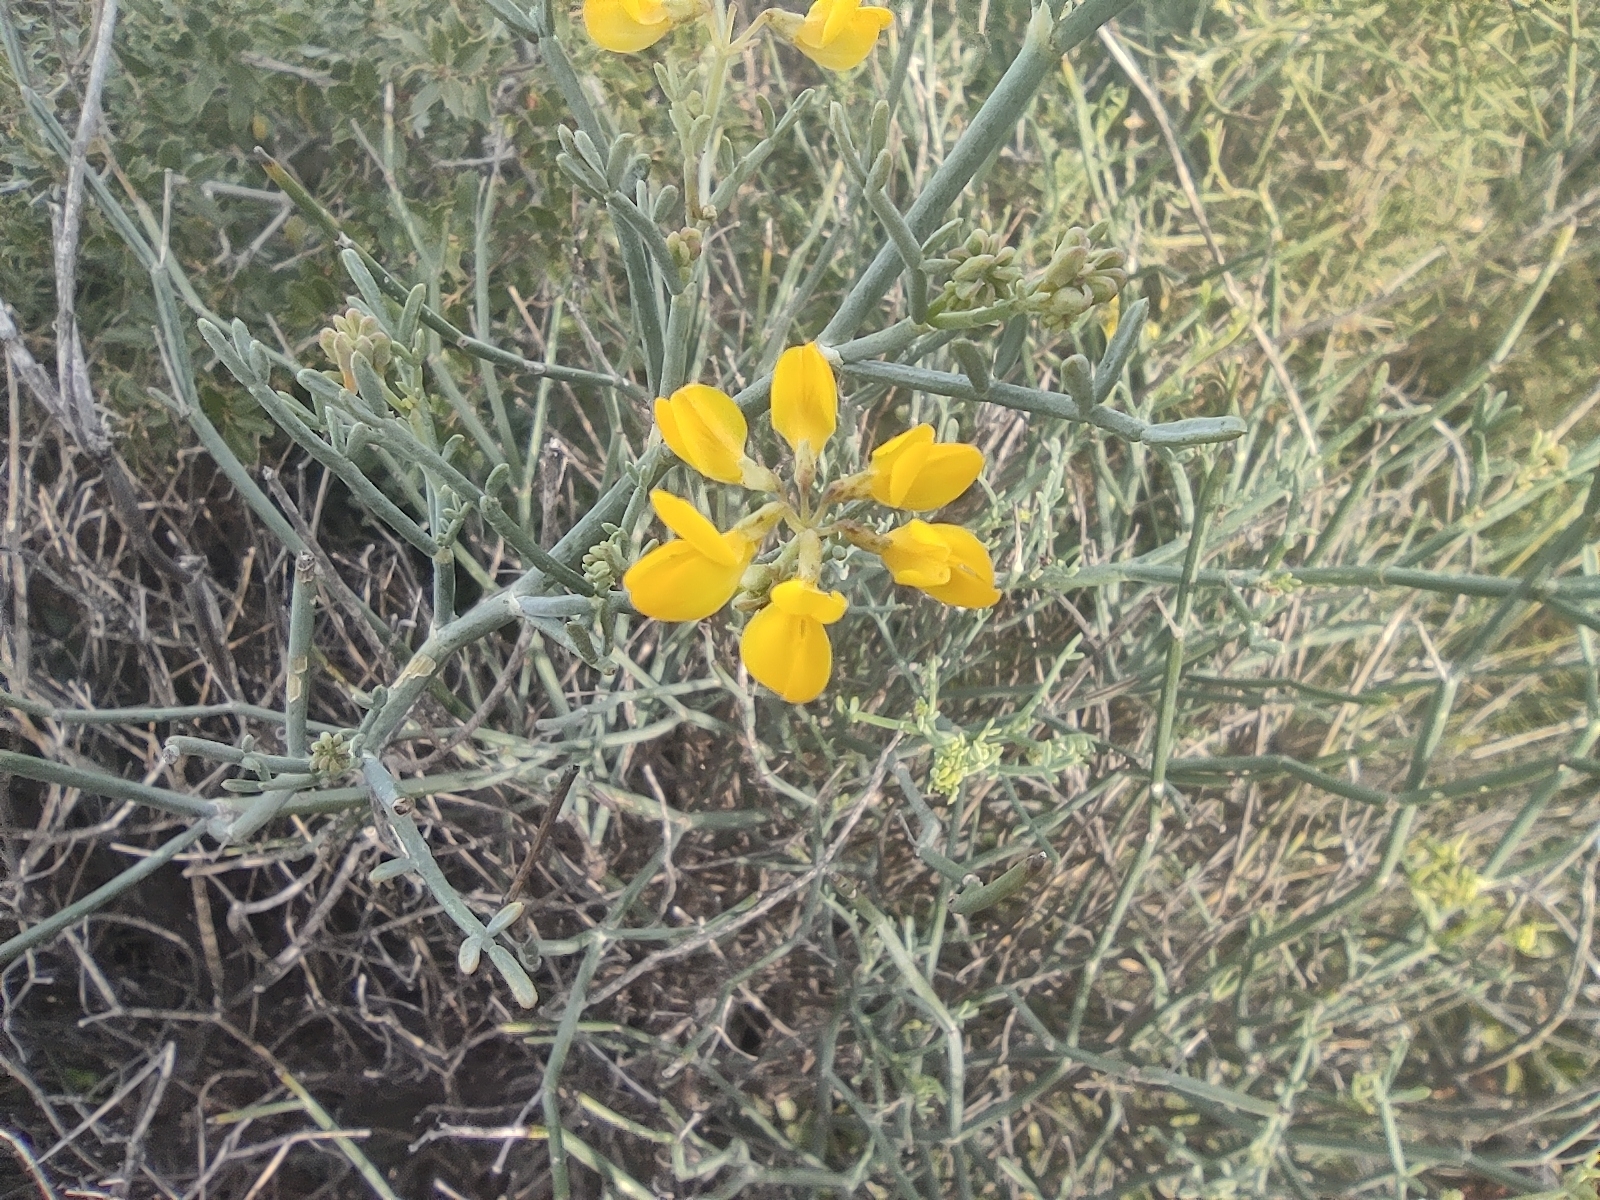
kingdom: Plantae
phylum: Tracheophyta
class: Magnoliopsida
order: Fabales
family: Fabaceae
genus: Coronilla
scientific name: Coronilla juncea
